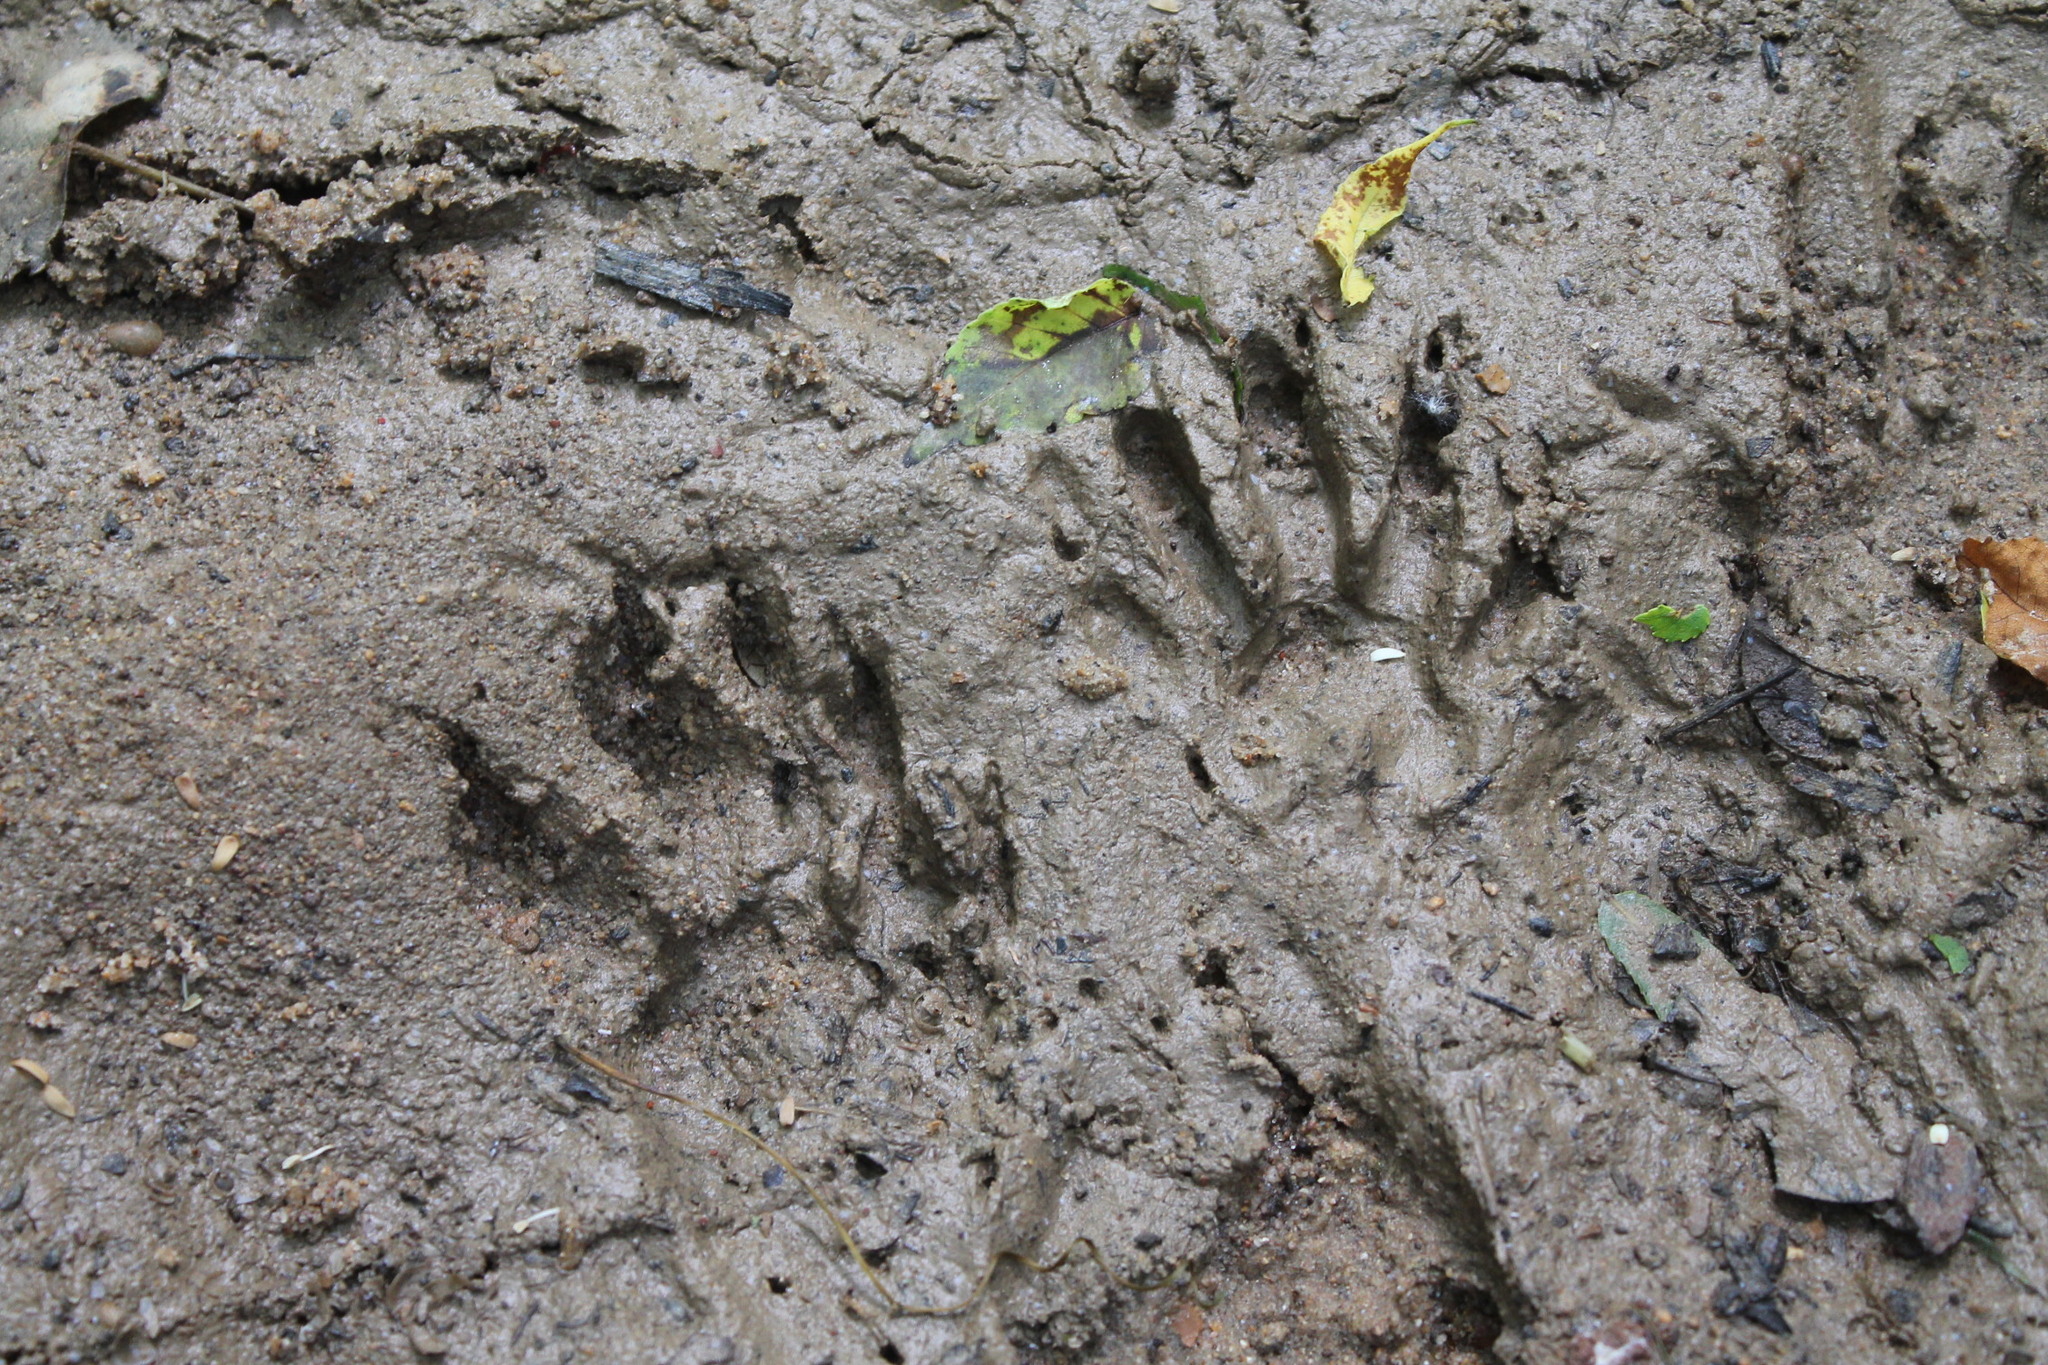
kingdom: Animalia
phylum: Chordata
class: Mammalia
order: Carnivora
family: Procyonidae
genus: Procyon
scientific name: Procyon lotor
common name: Raccoon
